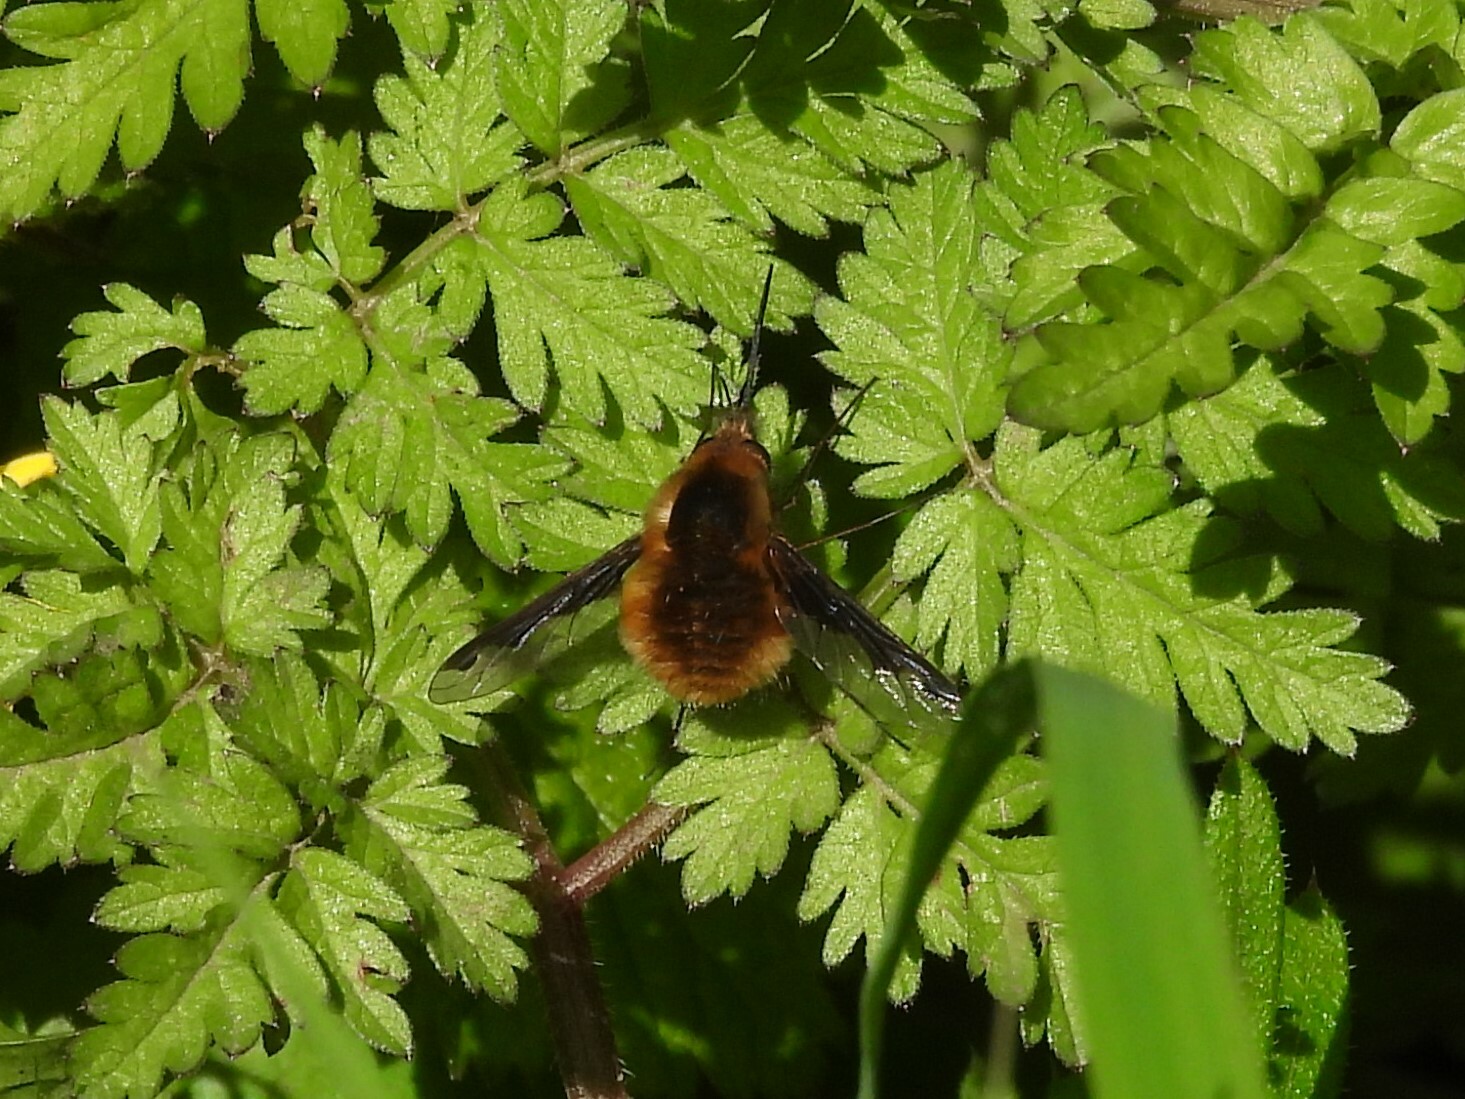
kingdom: Animalia
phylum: Arthropoda
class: Insecta
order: Diptera
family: Bombyliidae
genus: Bombylius
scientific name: Bombylius major
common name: Bee fly
